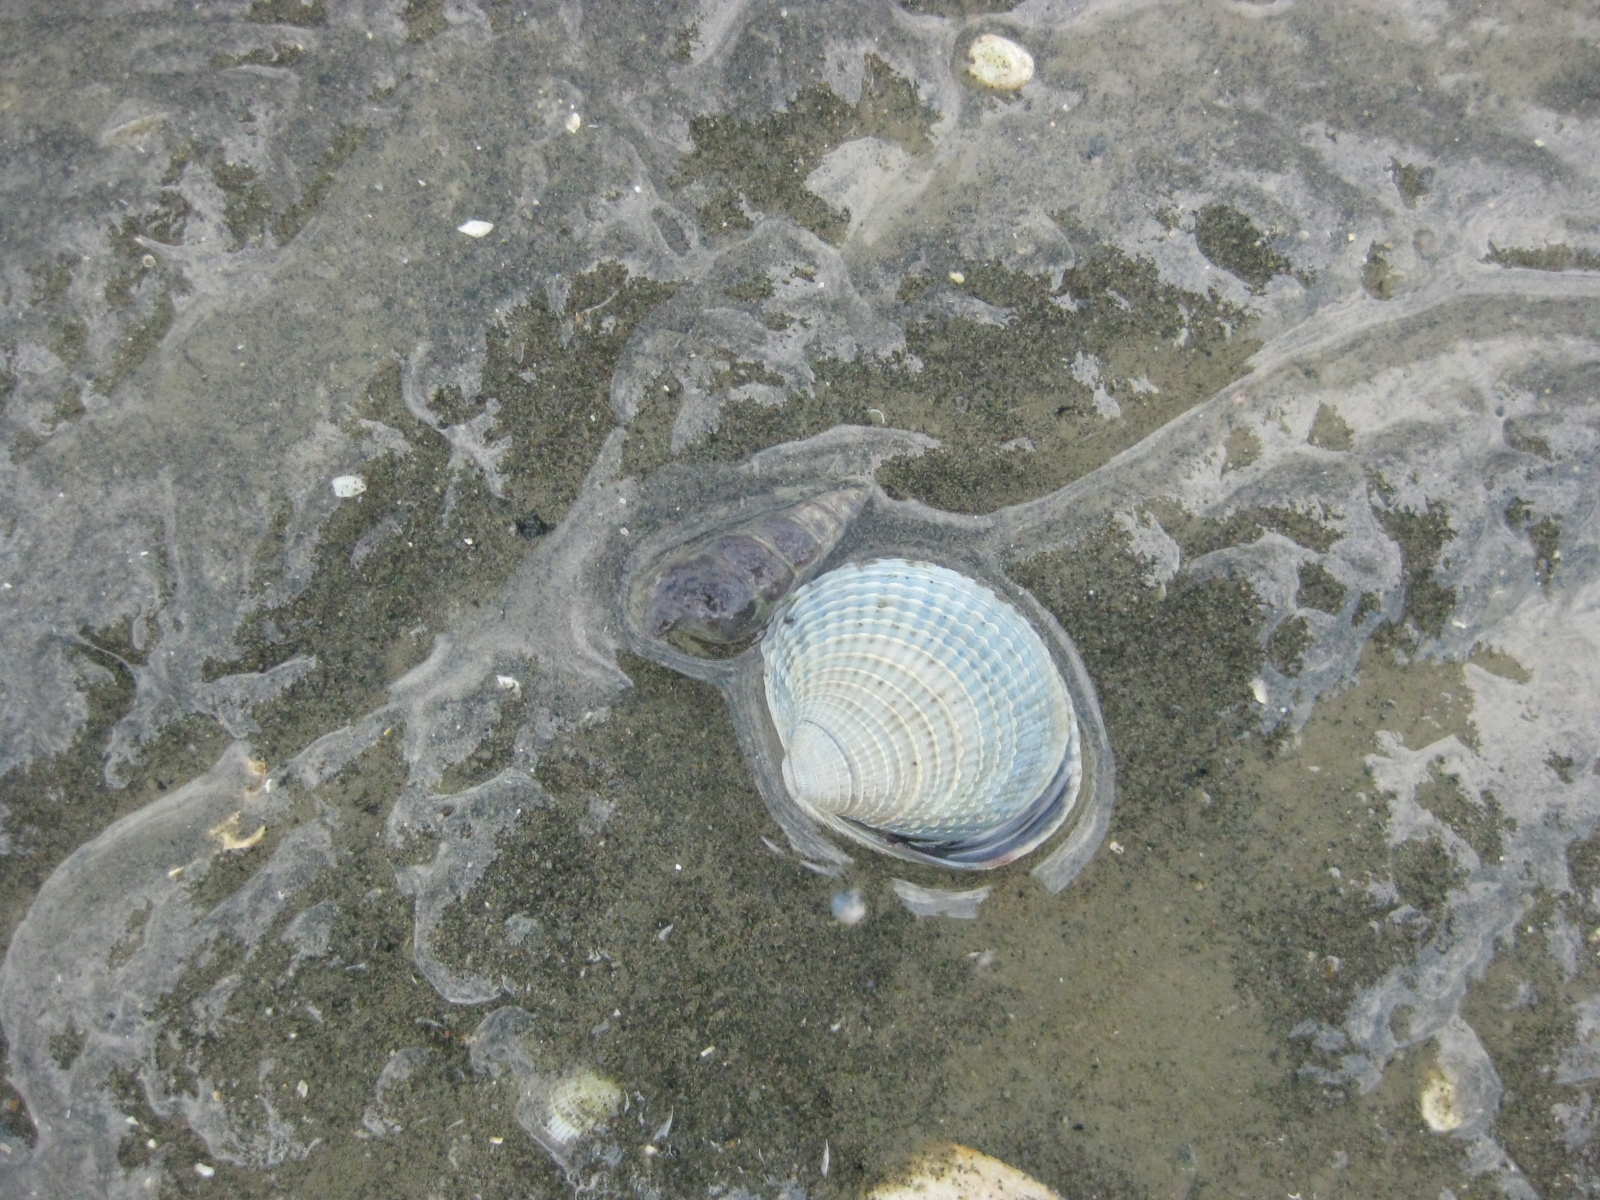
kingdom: Animalia
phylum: Mollusca
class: Gastropoda
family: Batillariidae
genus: Zeacumantus
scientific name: Zeacumantus lutulentus
